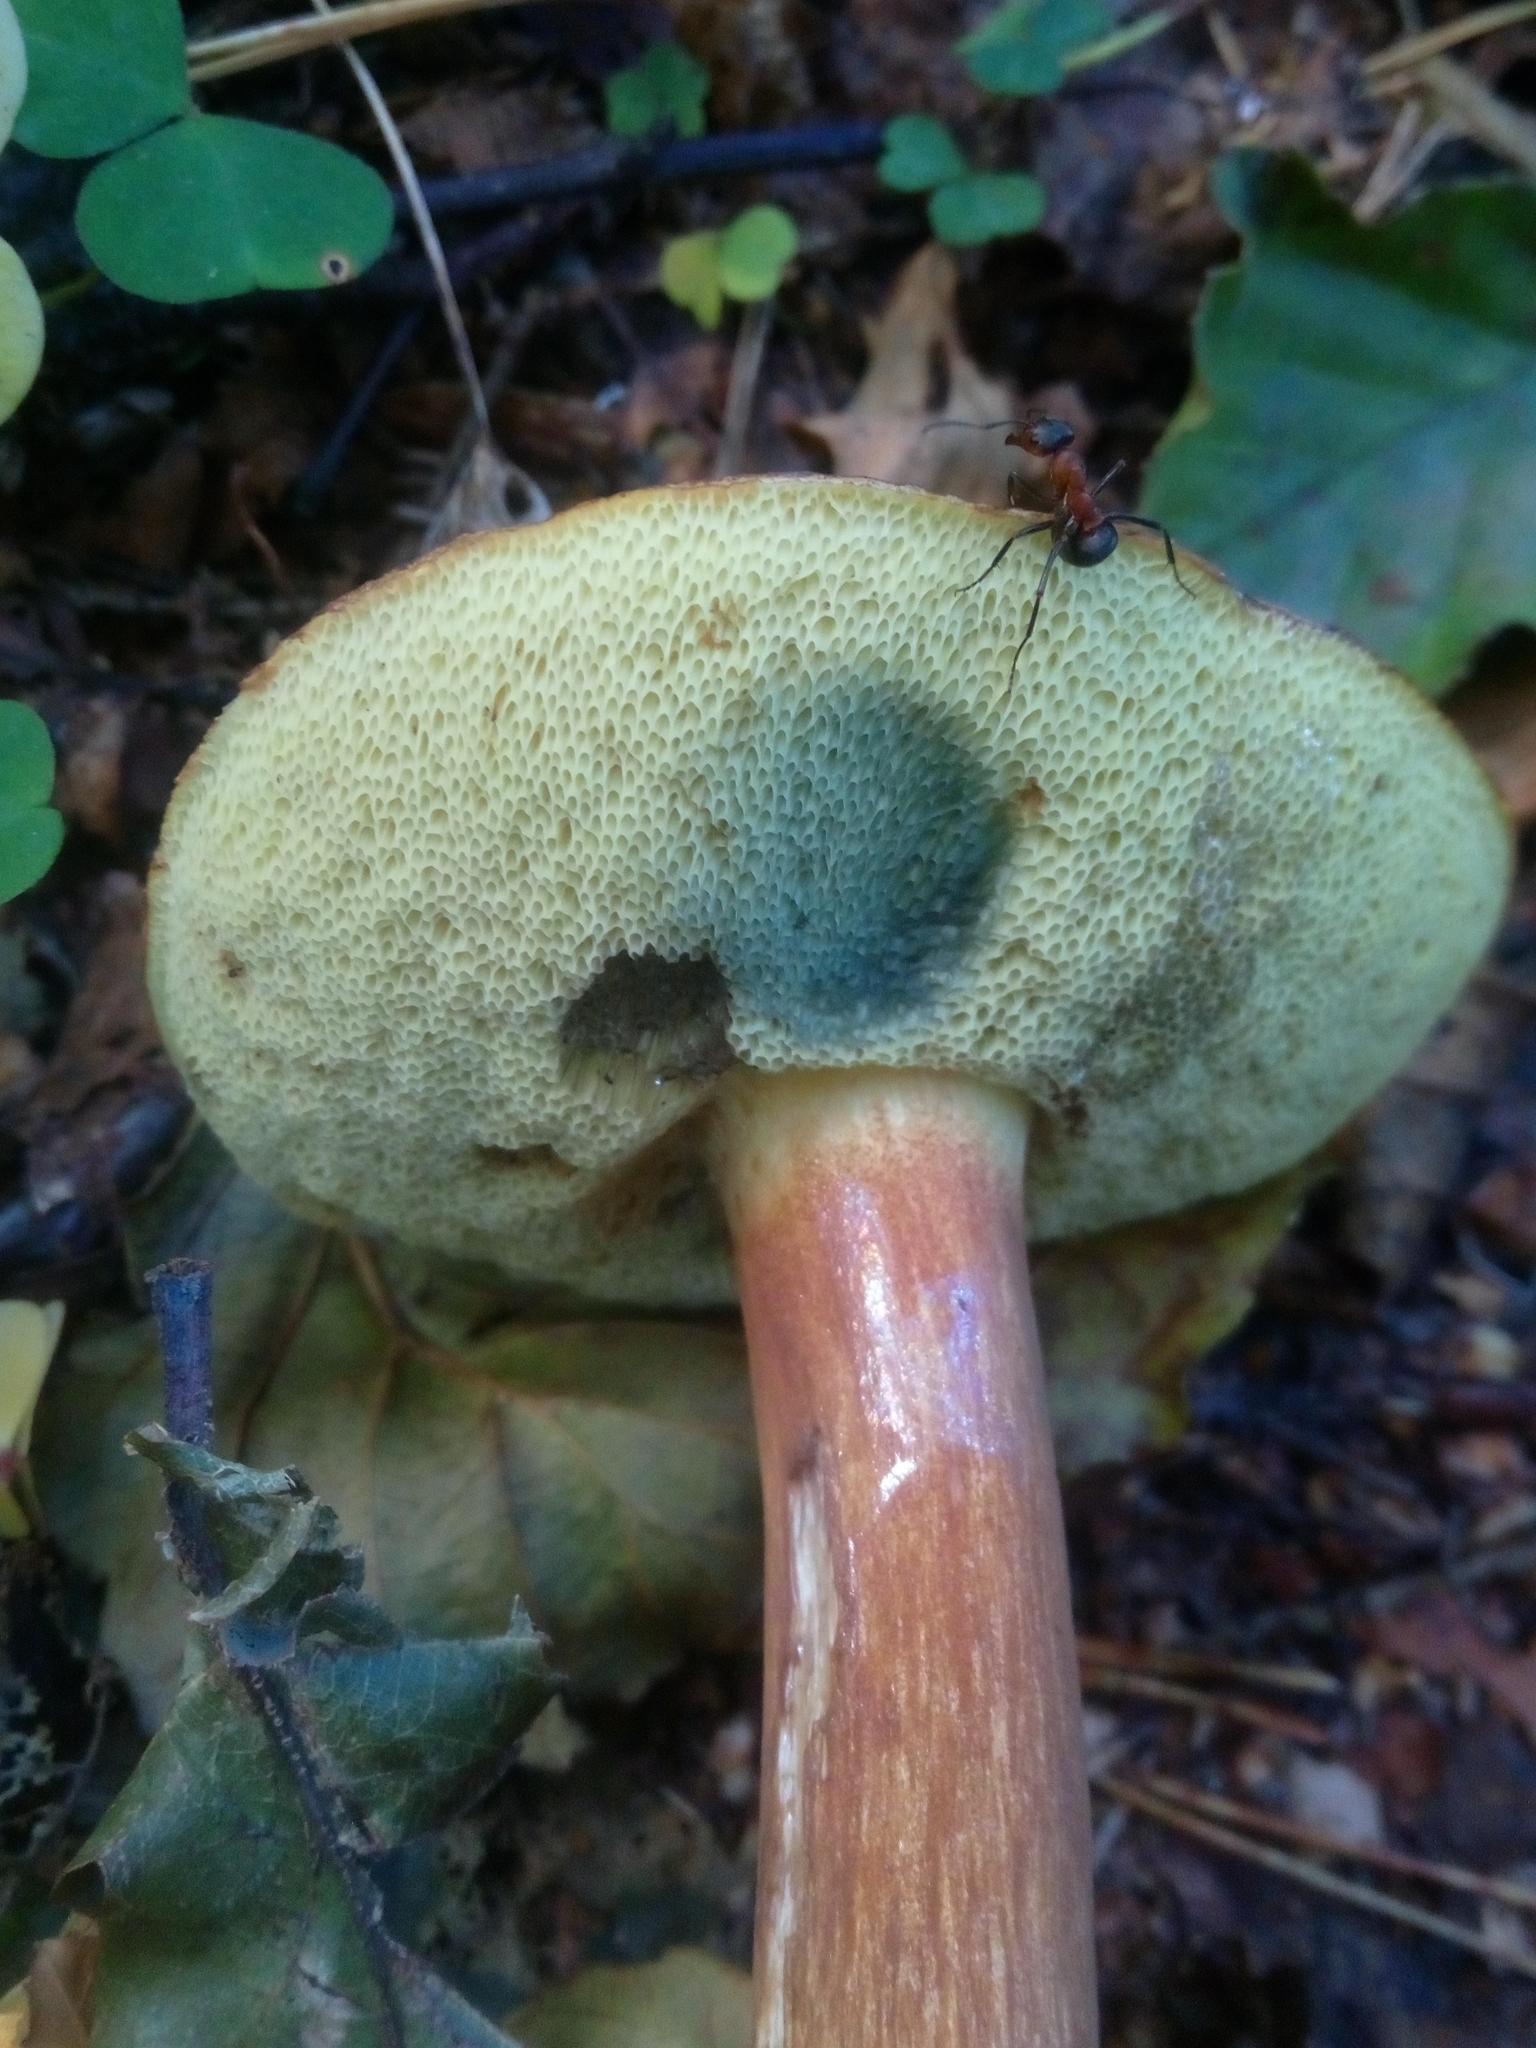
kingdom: Fungi
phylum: Basidiomycota
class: Agaricomycetes
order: Boletales
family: Boletaceae
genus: Imleria
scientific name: Imleria badia
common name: Bay bolete
